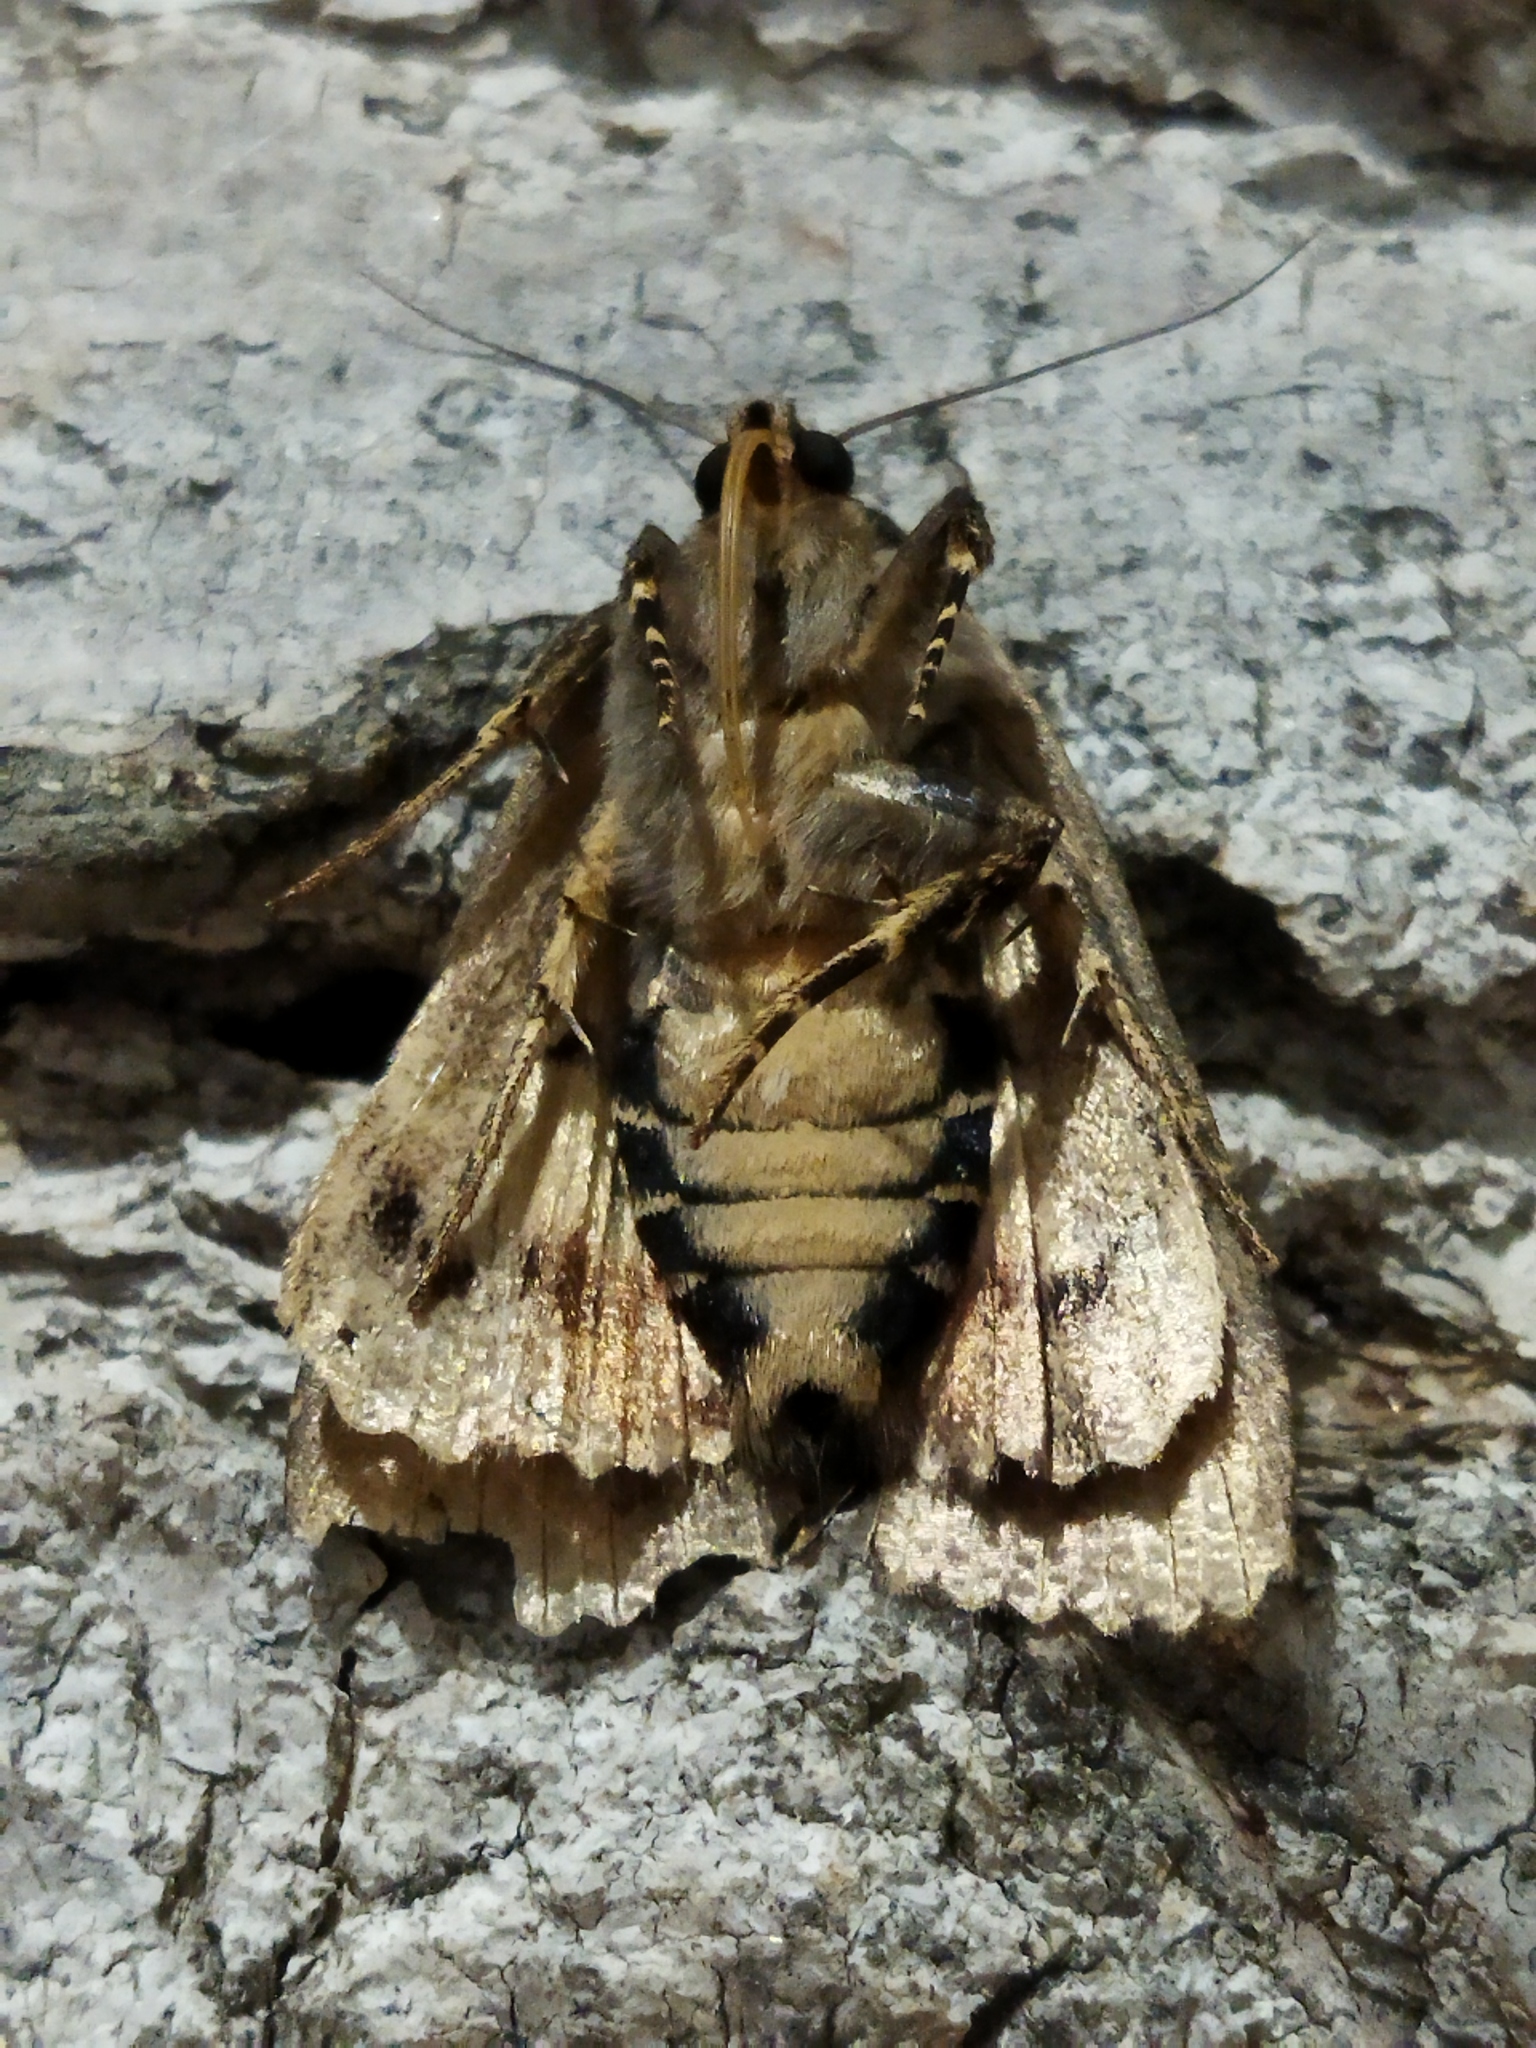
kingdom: Animalia
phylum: Arthropoda
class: Insecta
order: Lepidoptera
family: Noctuidae
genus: Amphipyra
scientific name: Amphipyra pyramidea
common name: Copper underwing
